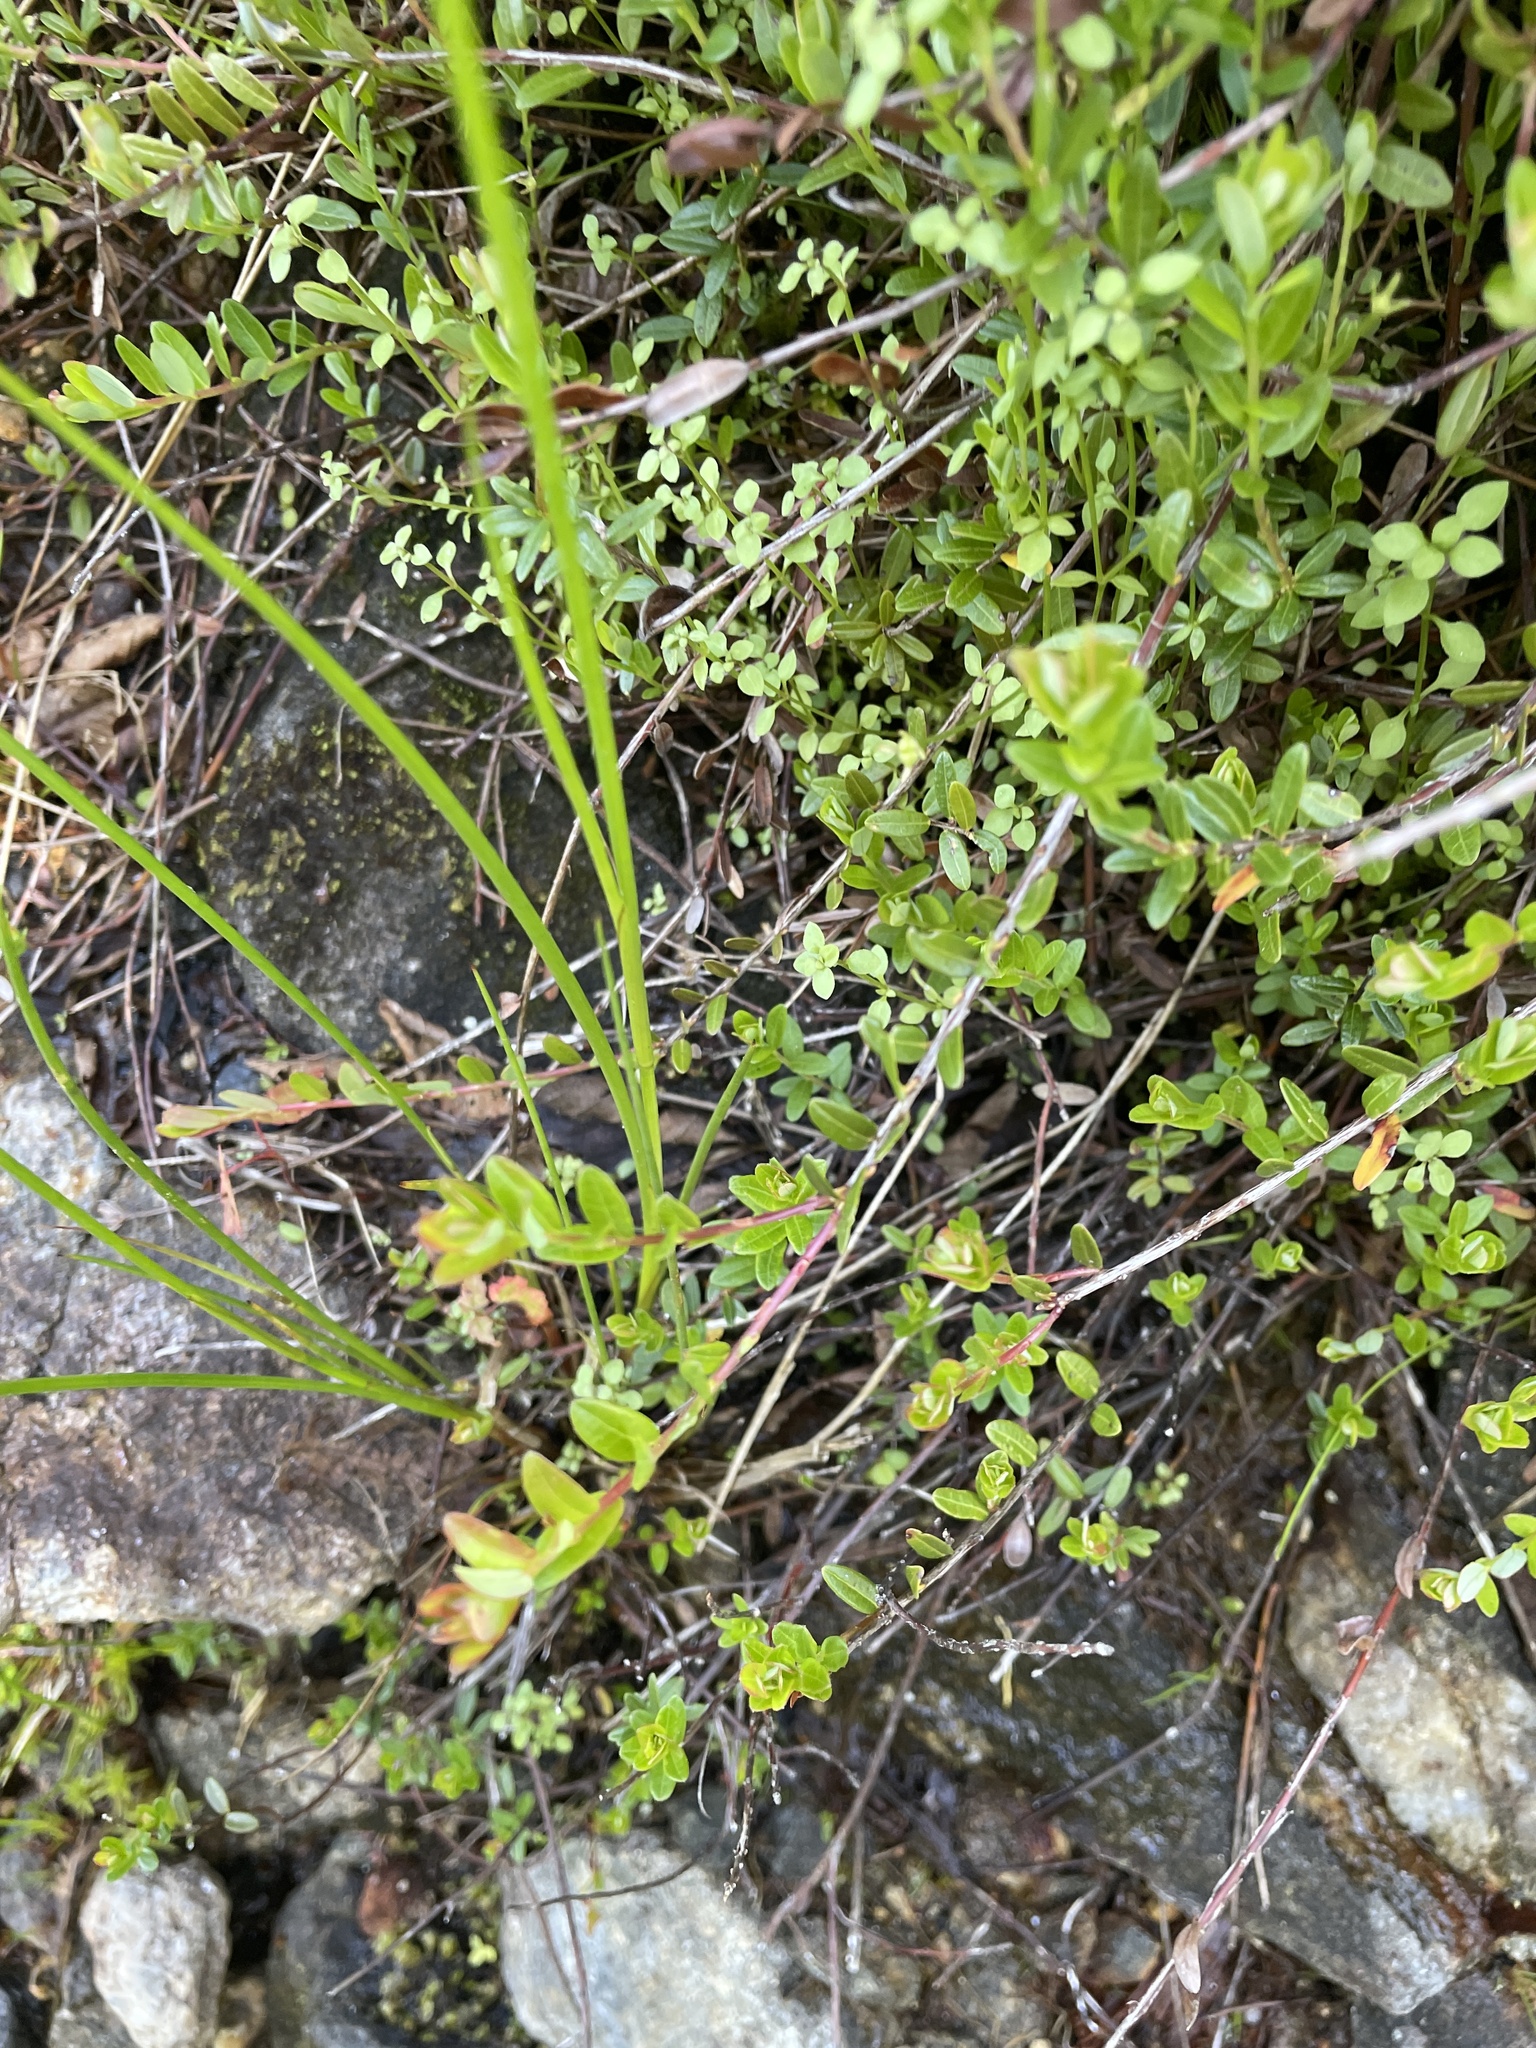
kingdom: Plantae
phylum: Tracheophyta
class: Magnoliopsida
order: Ericales
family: Ericaceae
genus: Vaccinium
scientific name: Vaccinium macrocarpon
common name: American cranberry
